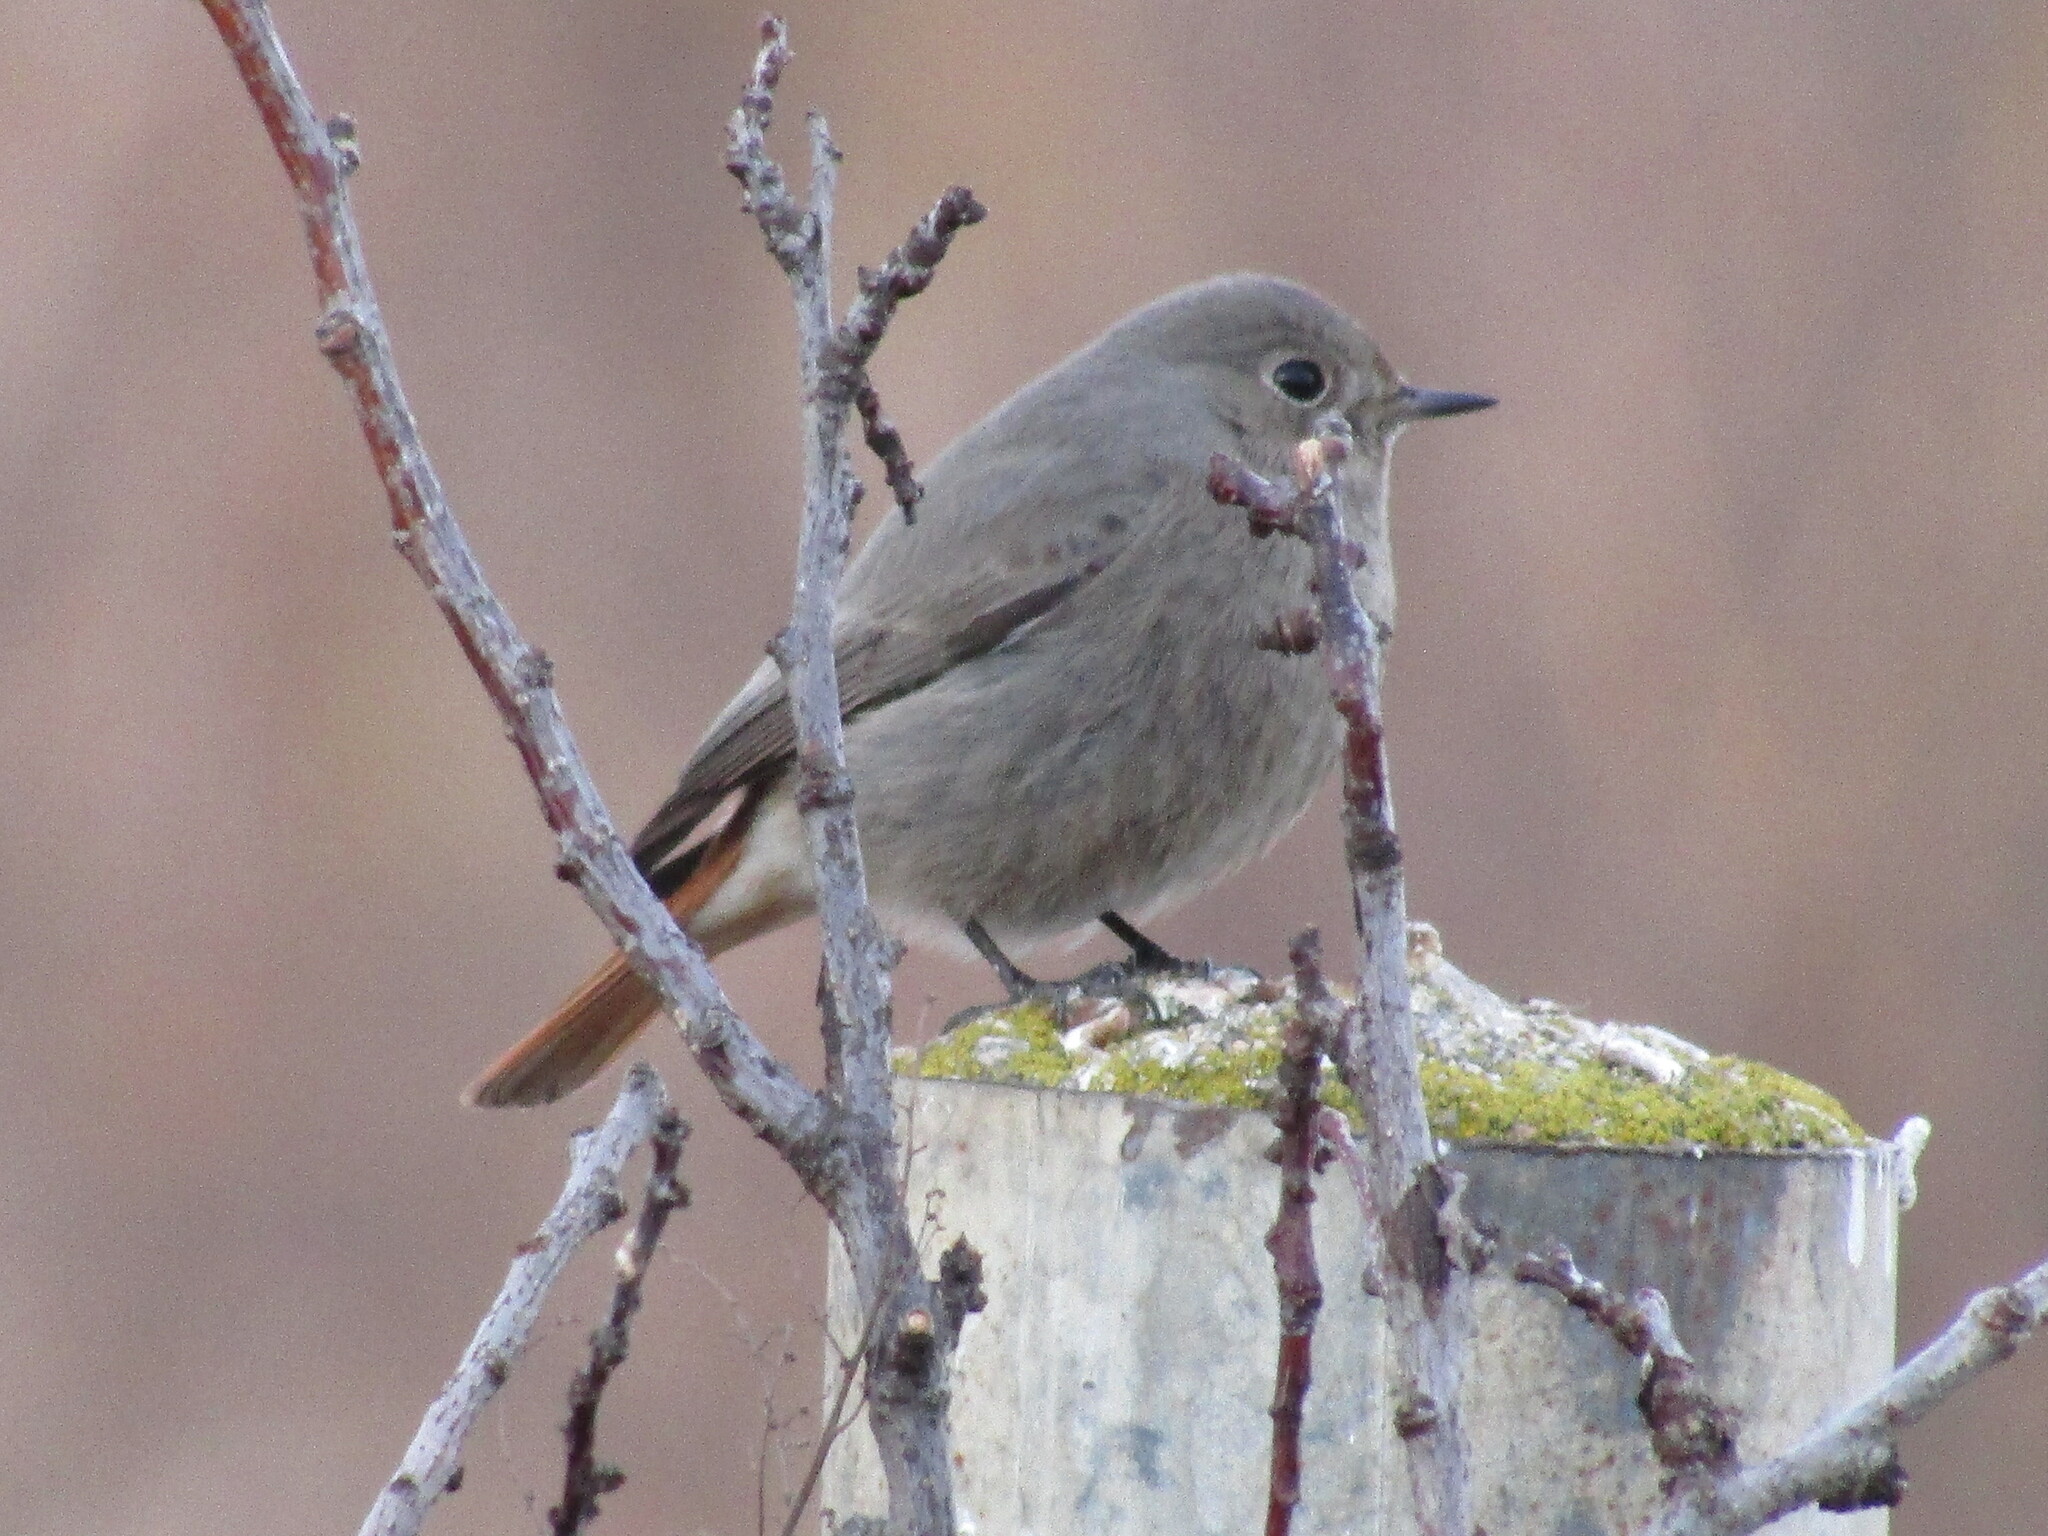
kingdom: Animalia
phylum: Chordata
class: Aves
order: Passeriformes
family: Muscicapidae
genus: Phoenicurus
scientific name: Phoenicurus ochruros
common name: Black redstart
